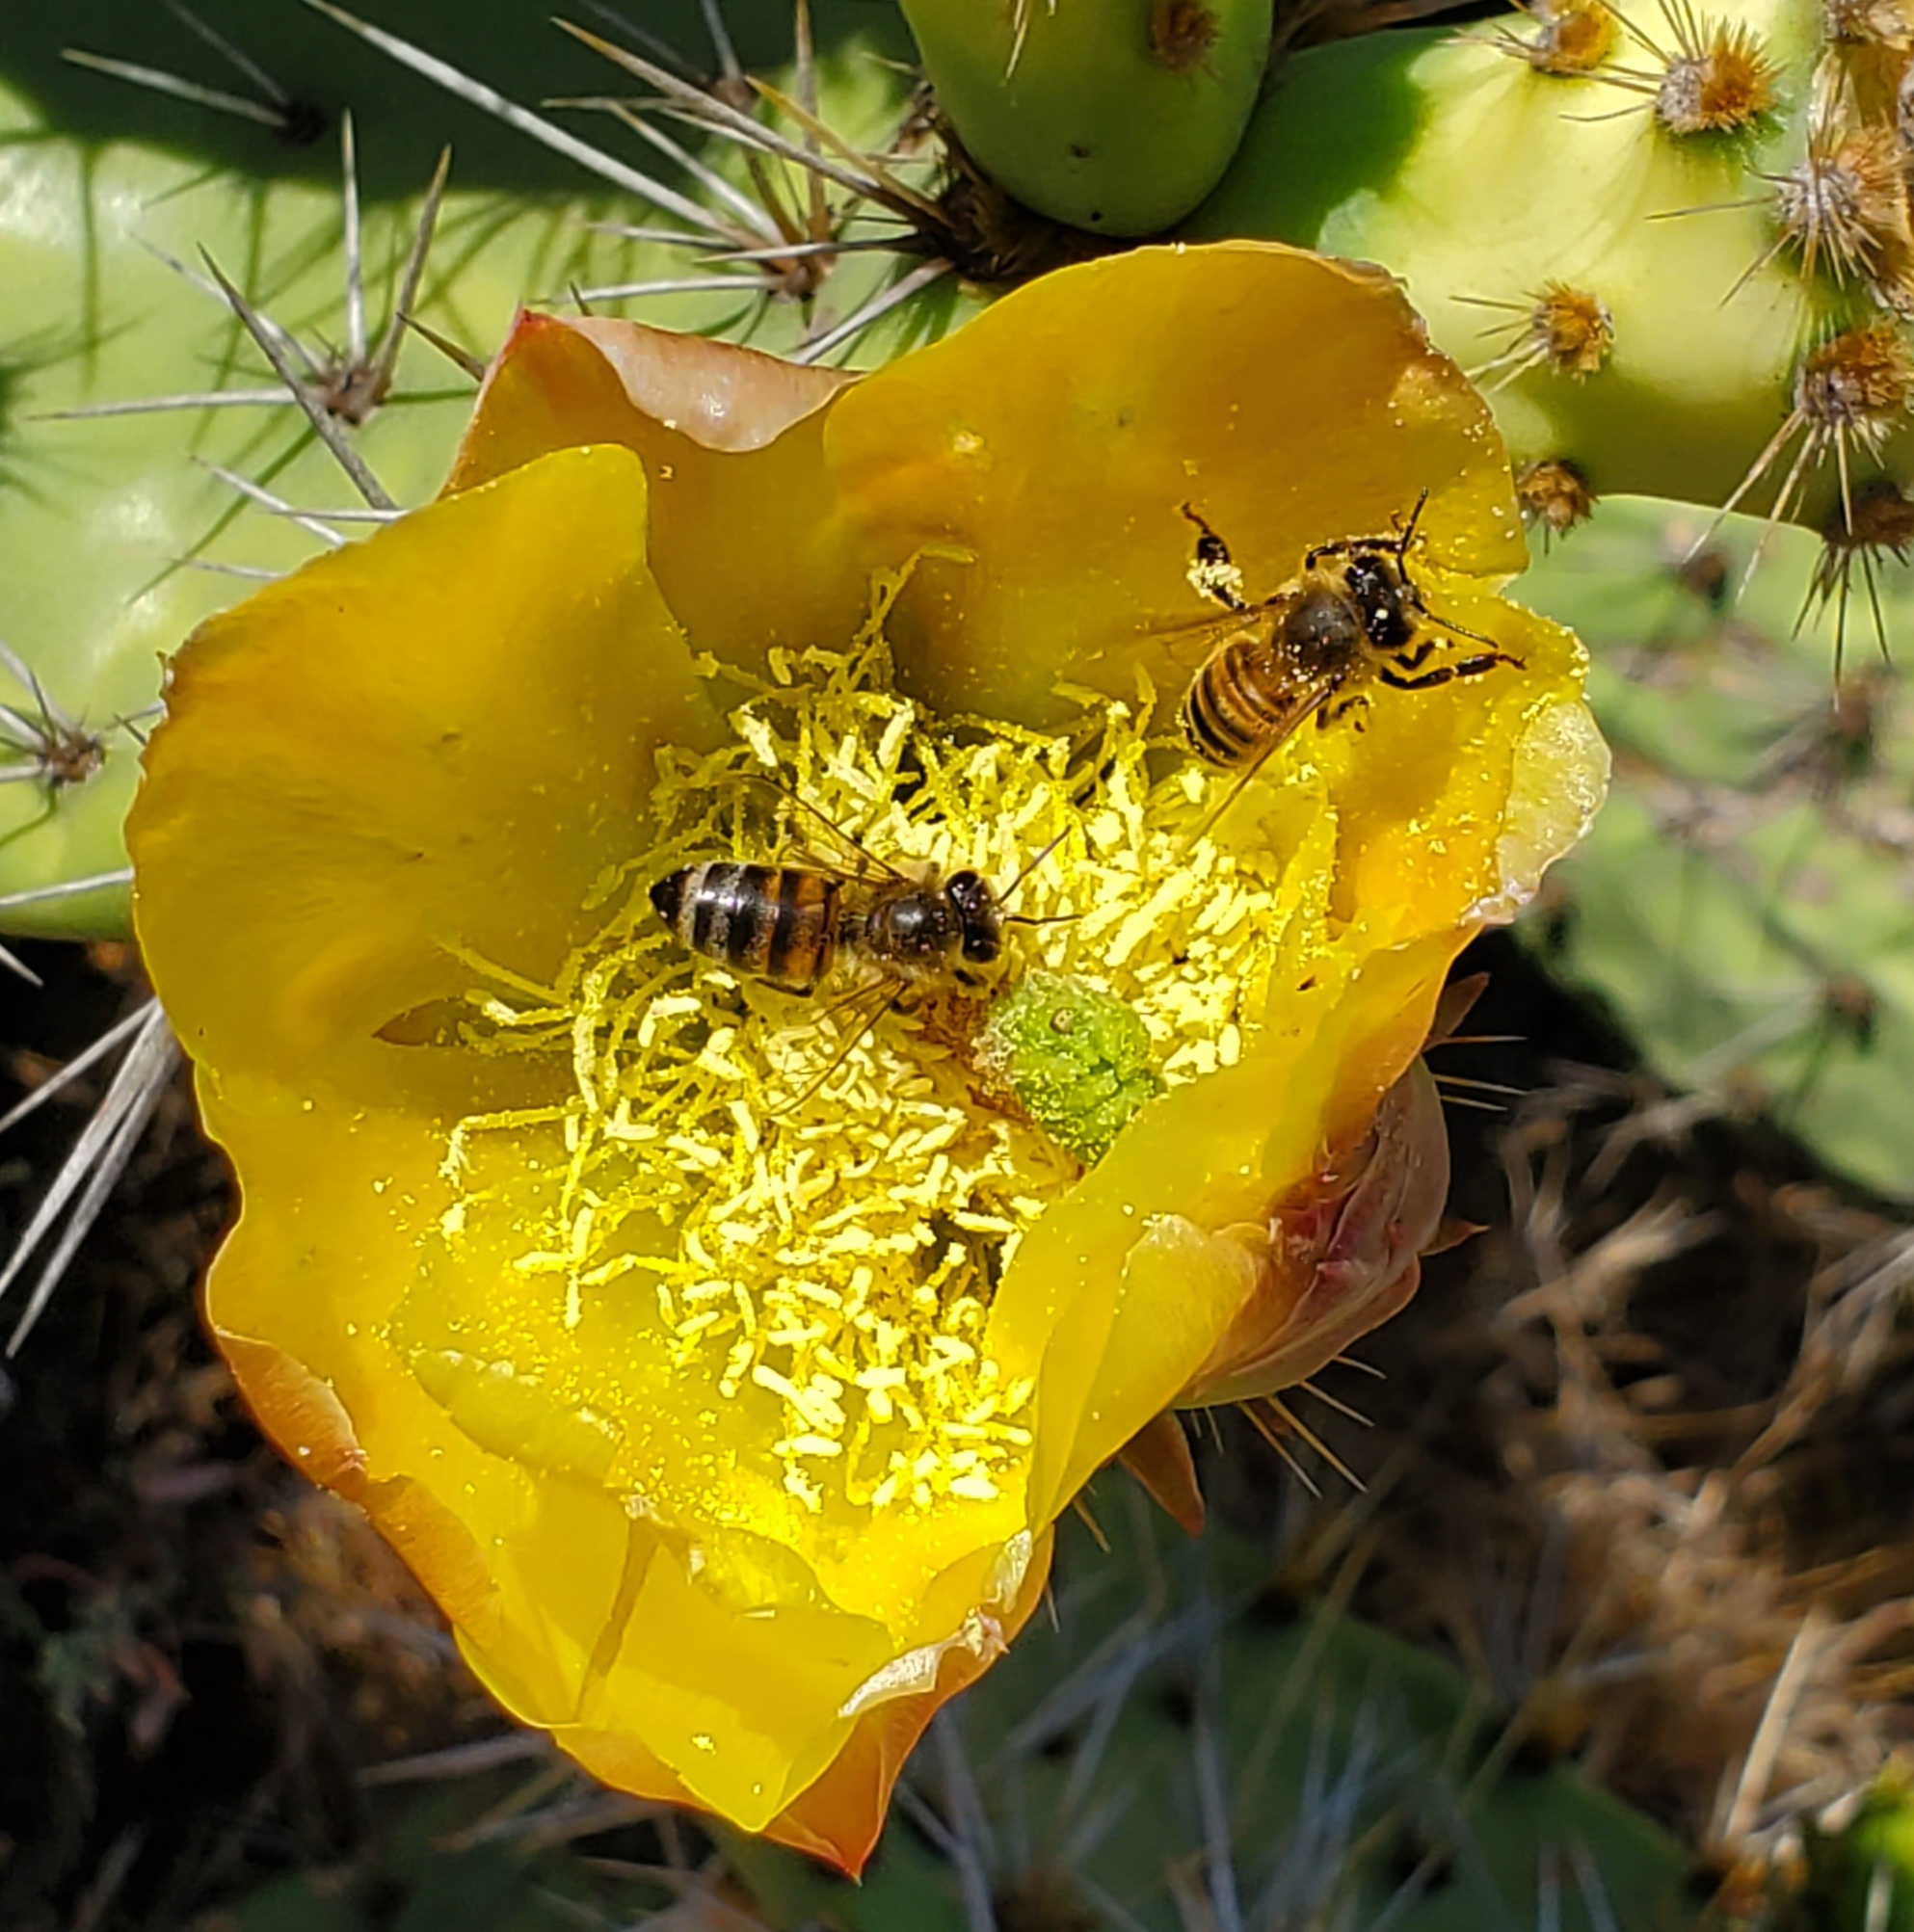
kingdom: Animalia
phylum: Arthropoda
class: Insecta
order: Hymenoptera
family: Apidae
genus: Apis
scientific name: Apis mellifera
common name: Honey bee
